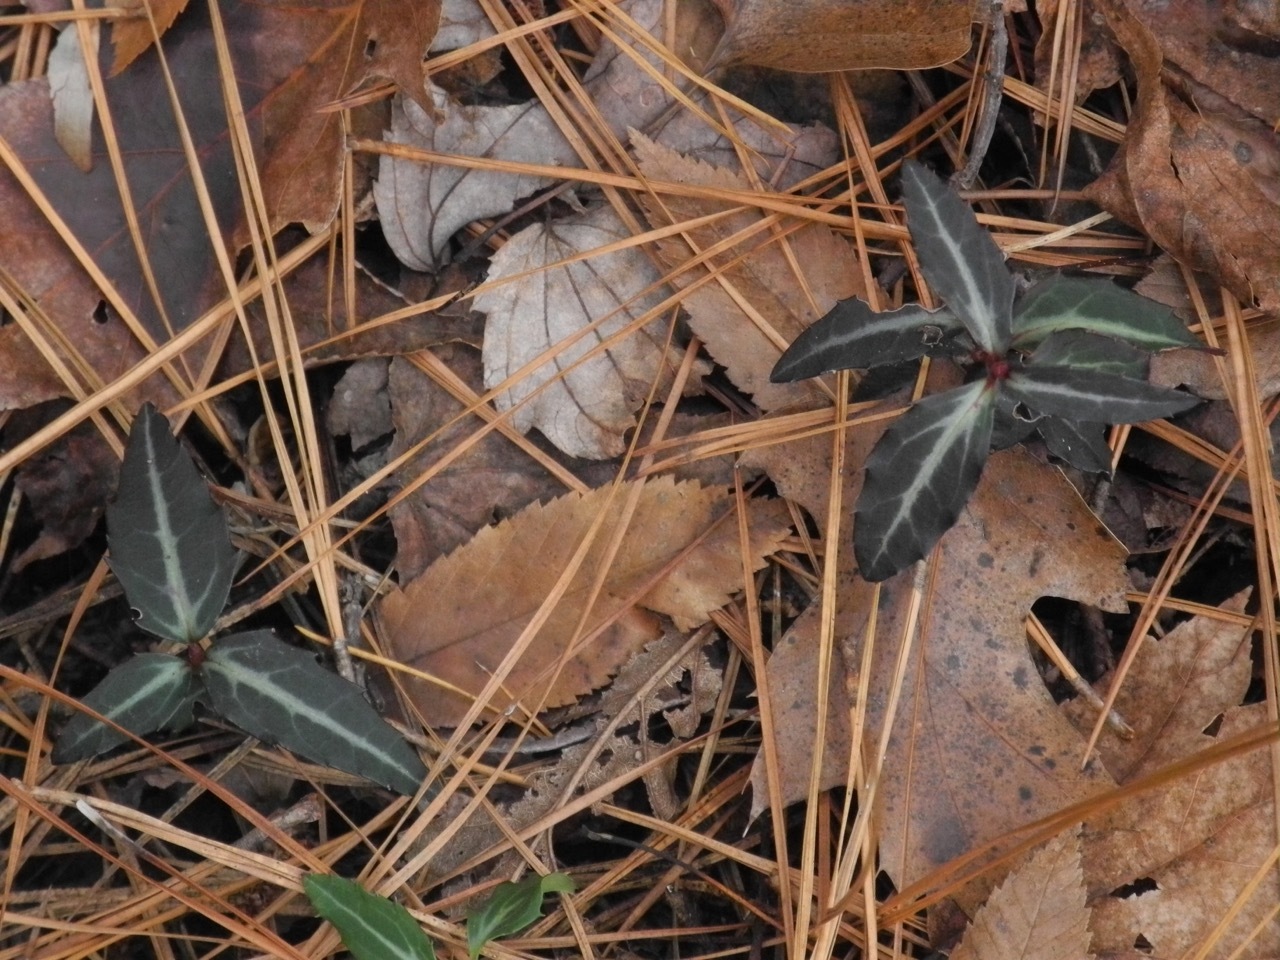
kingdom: Plantae
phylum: Tracheophyta
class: Magnoliopsida
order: Ericales
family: Ericaceae
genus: Chimaphila
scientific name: Chimaphila maculata
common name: Spotted pipsissewa
